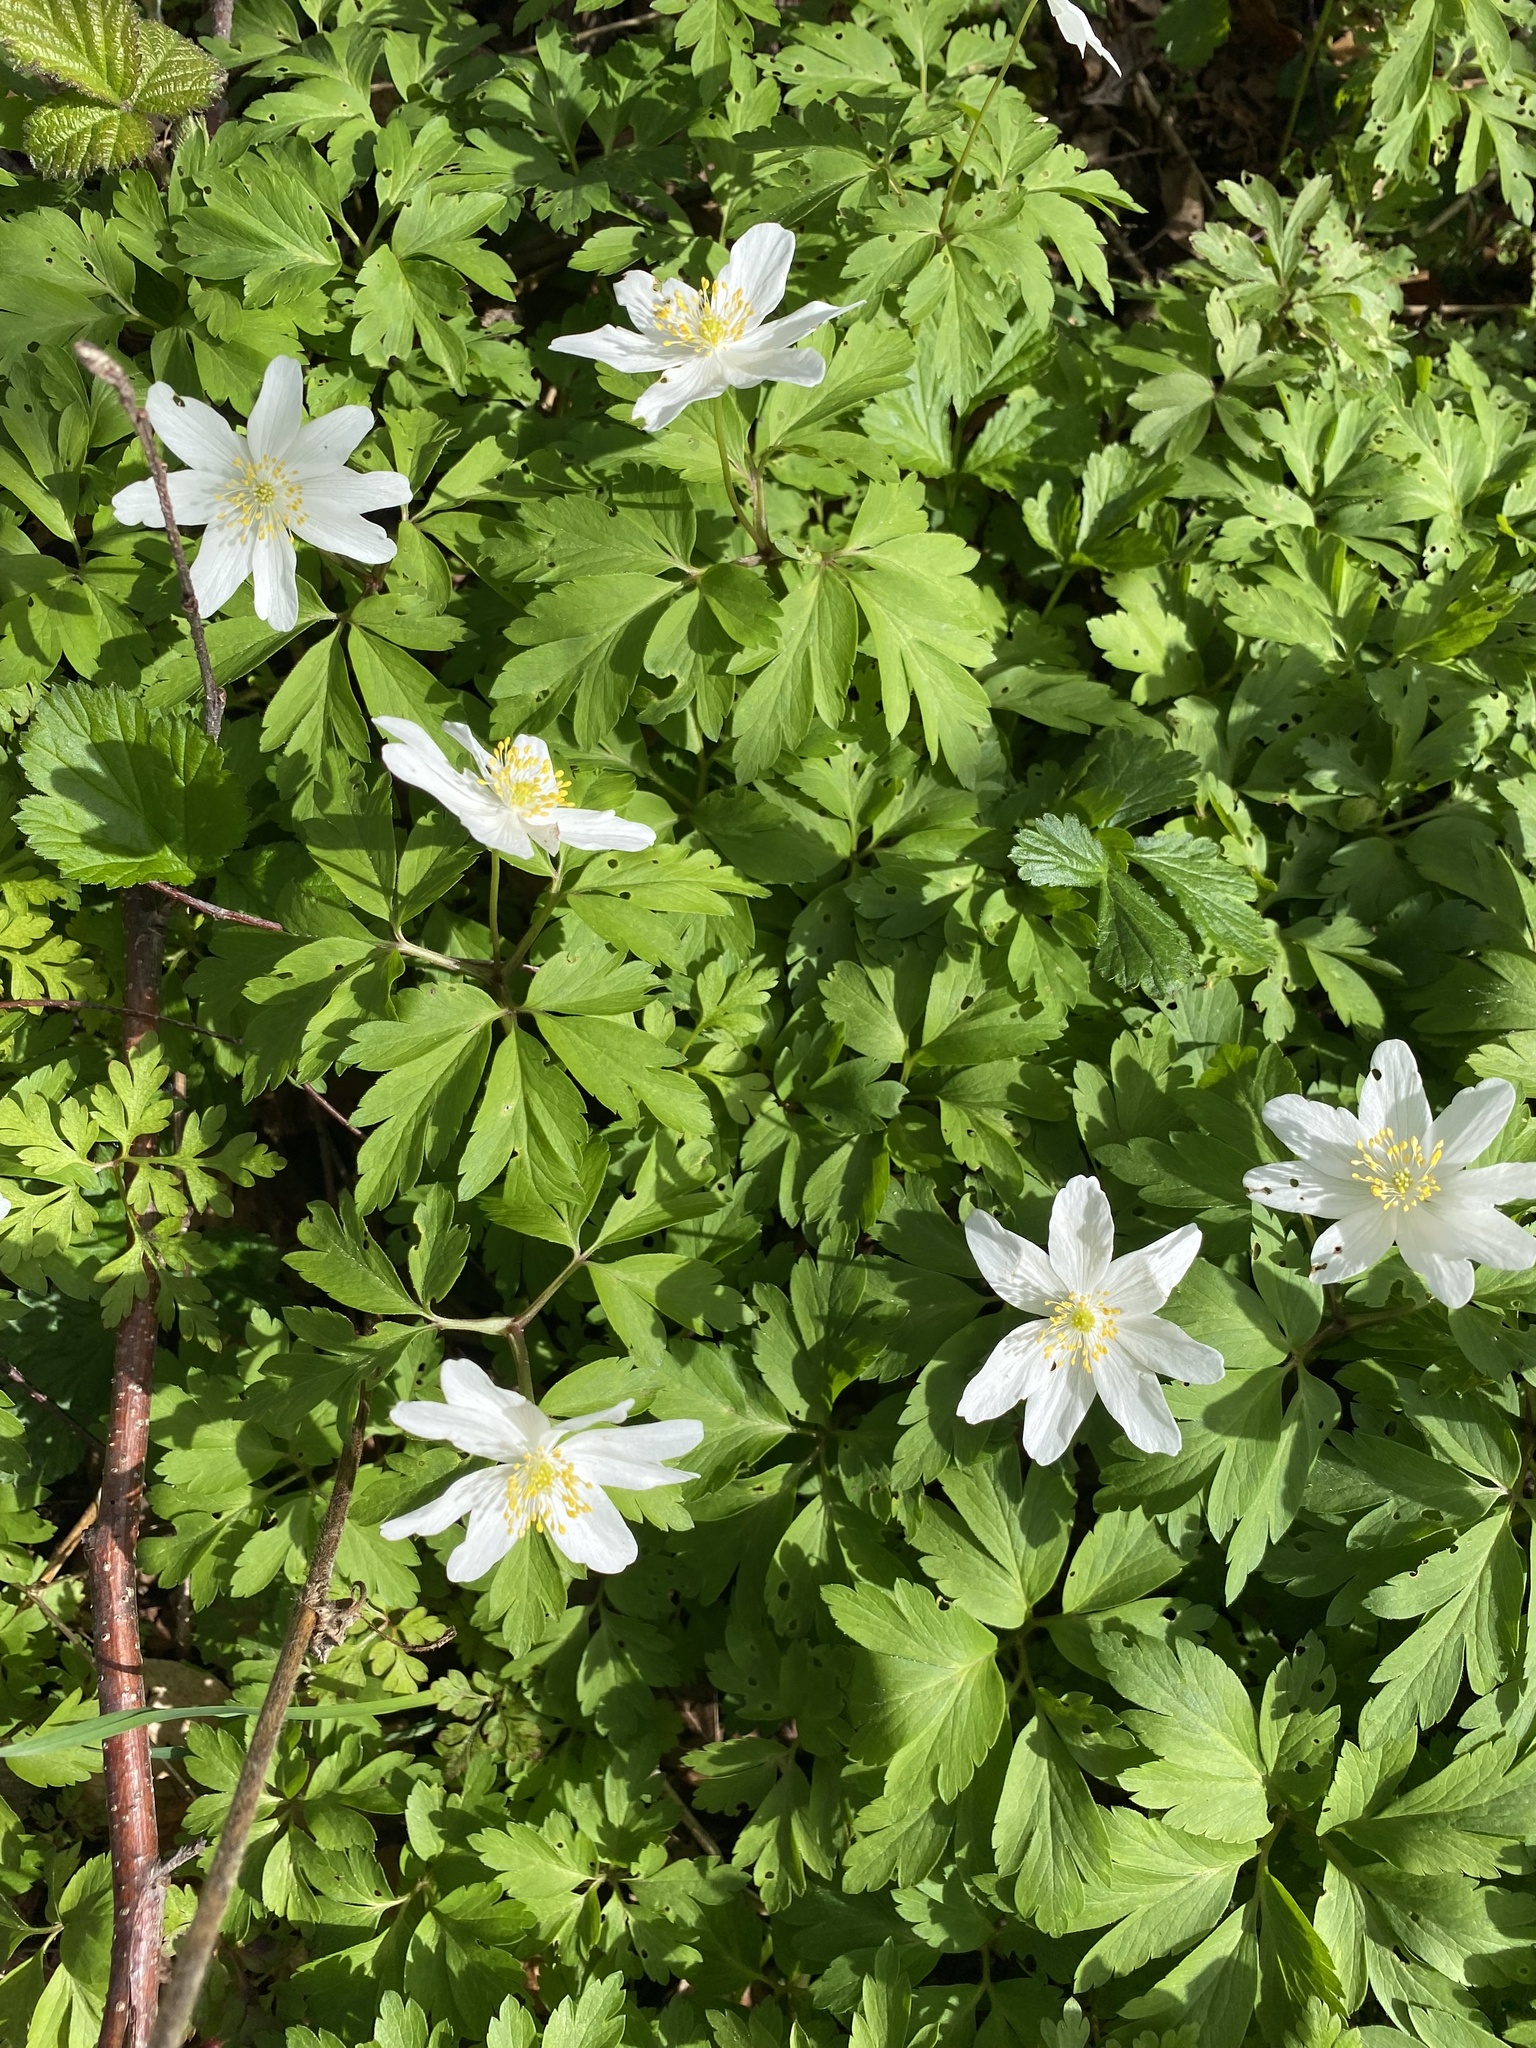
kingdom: Plantae
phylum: Tracheophyta
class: Magnoliopsida
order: Ranunculales
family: Ranunculaceae
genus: Anemone
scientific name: Anemone nemorosa
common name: Wood anemone
